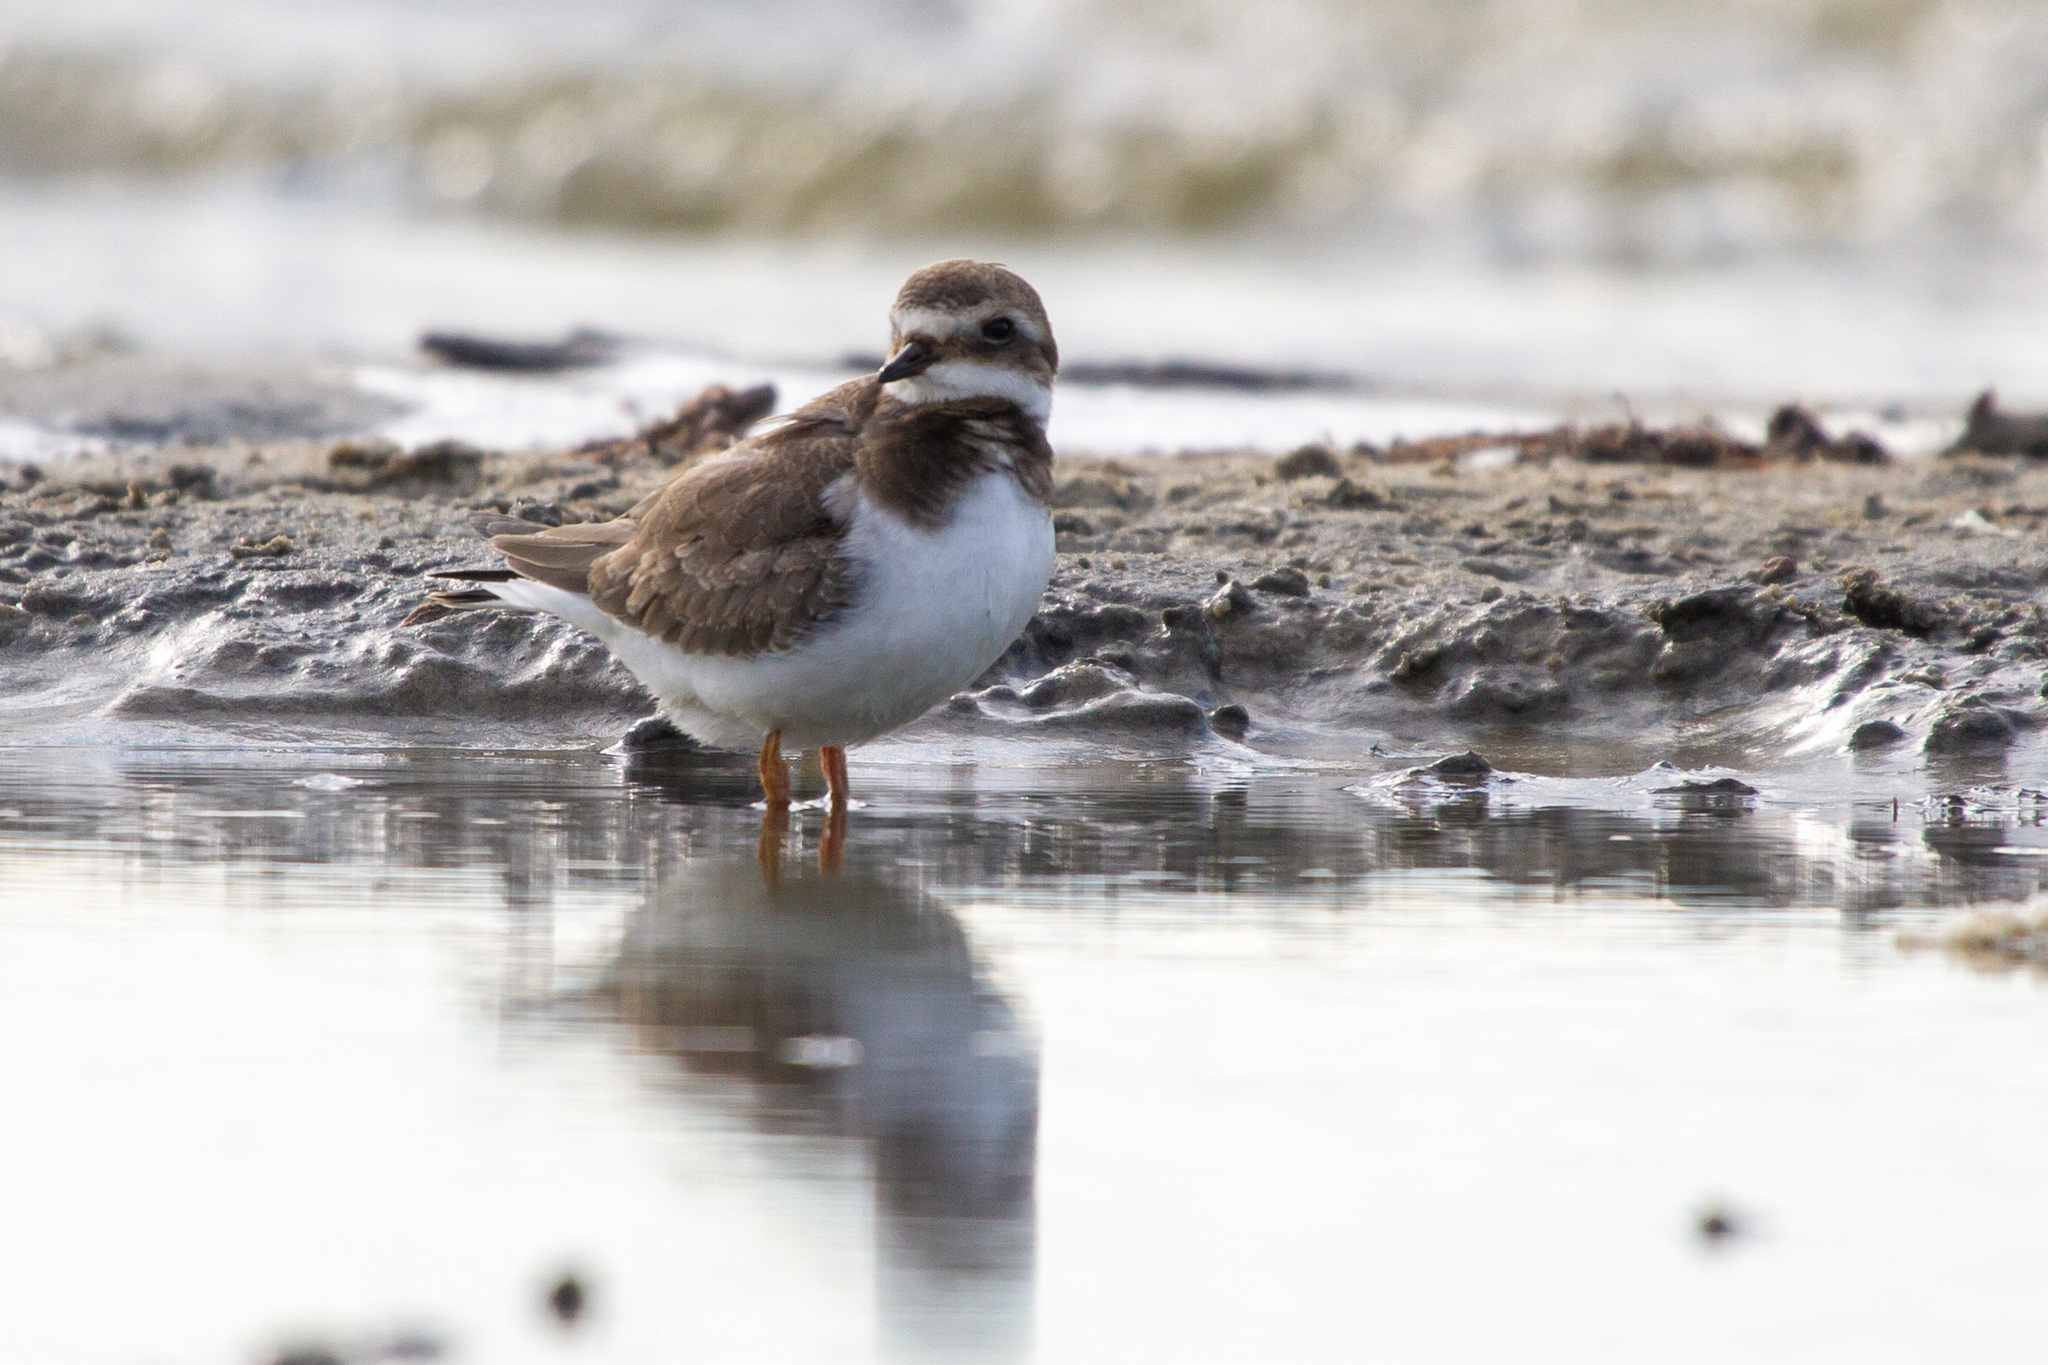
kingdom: Animalia
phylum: Chordata
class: Aves
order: Charadriiformes
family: Charadriidae
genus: Charadrius
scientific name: Charadrius hiaticula
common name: Common ringed plover
